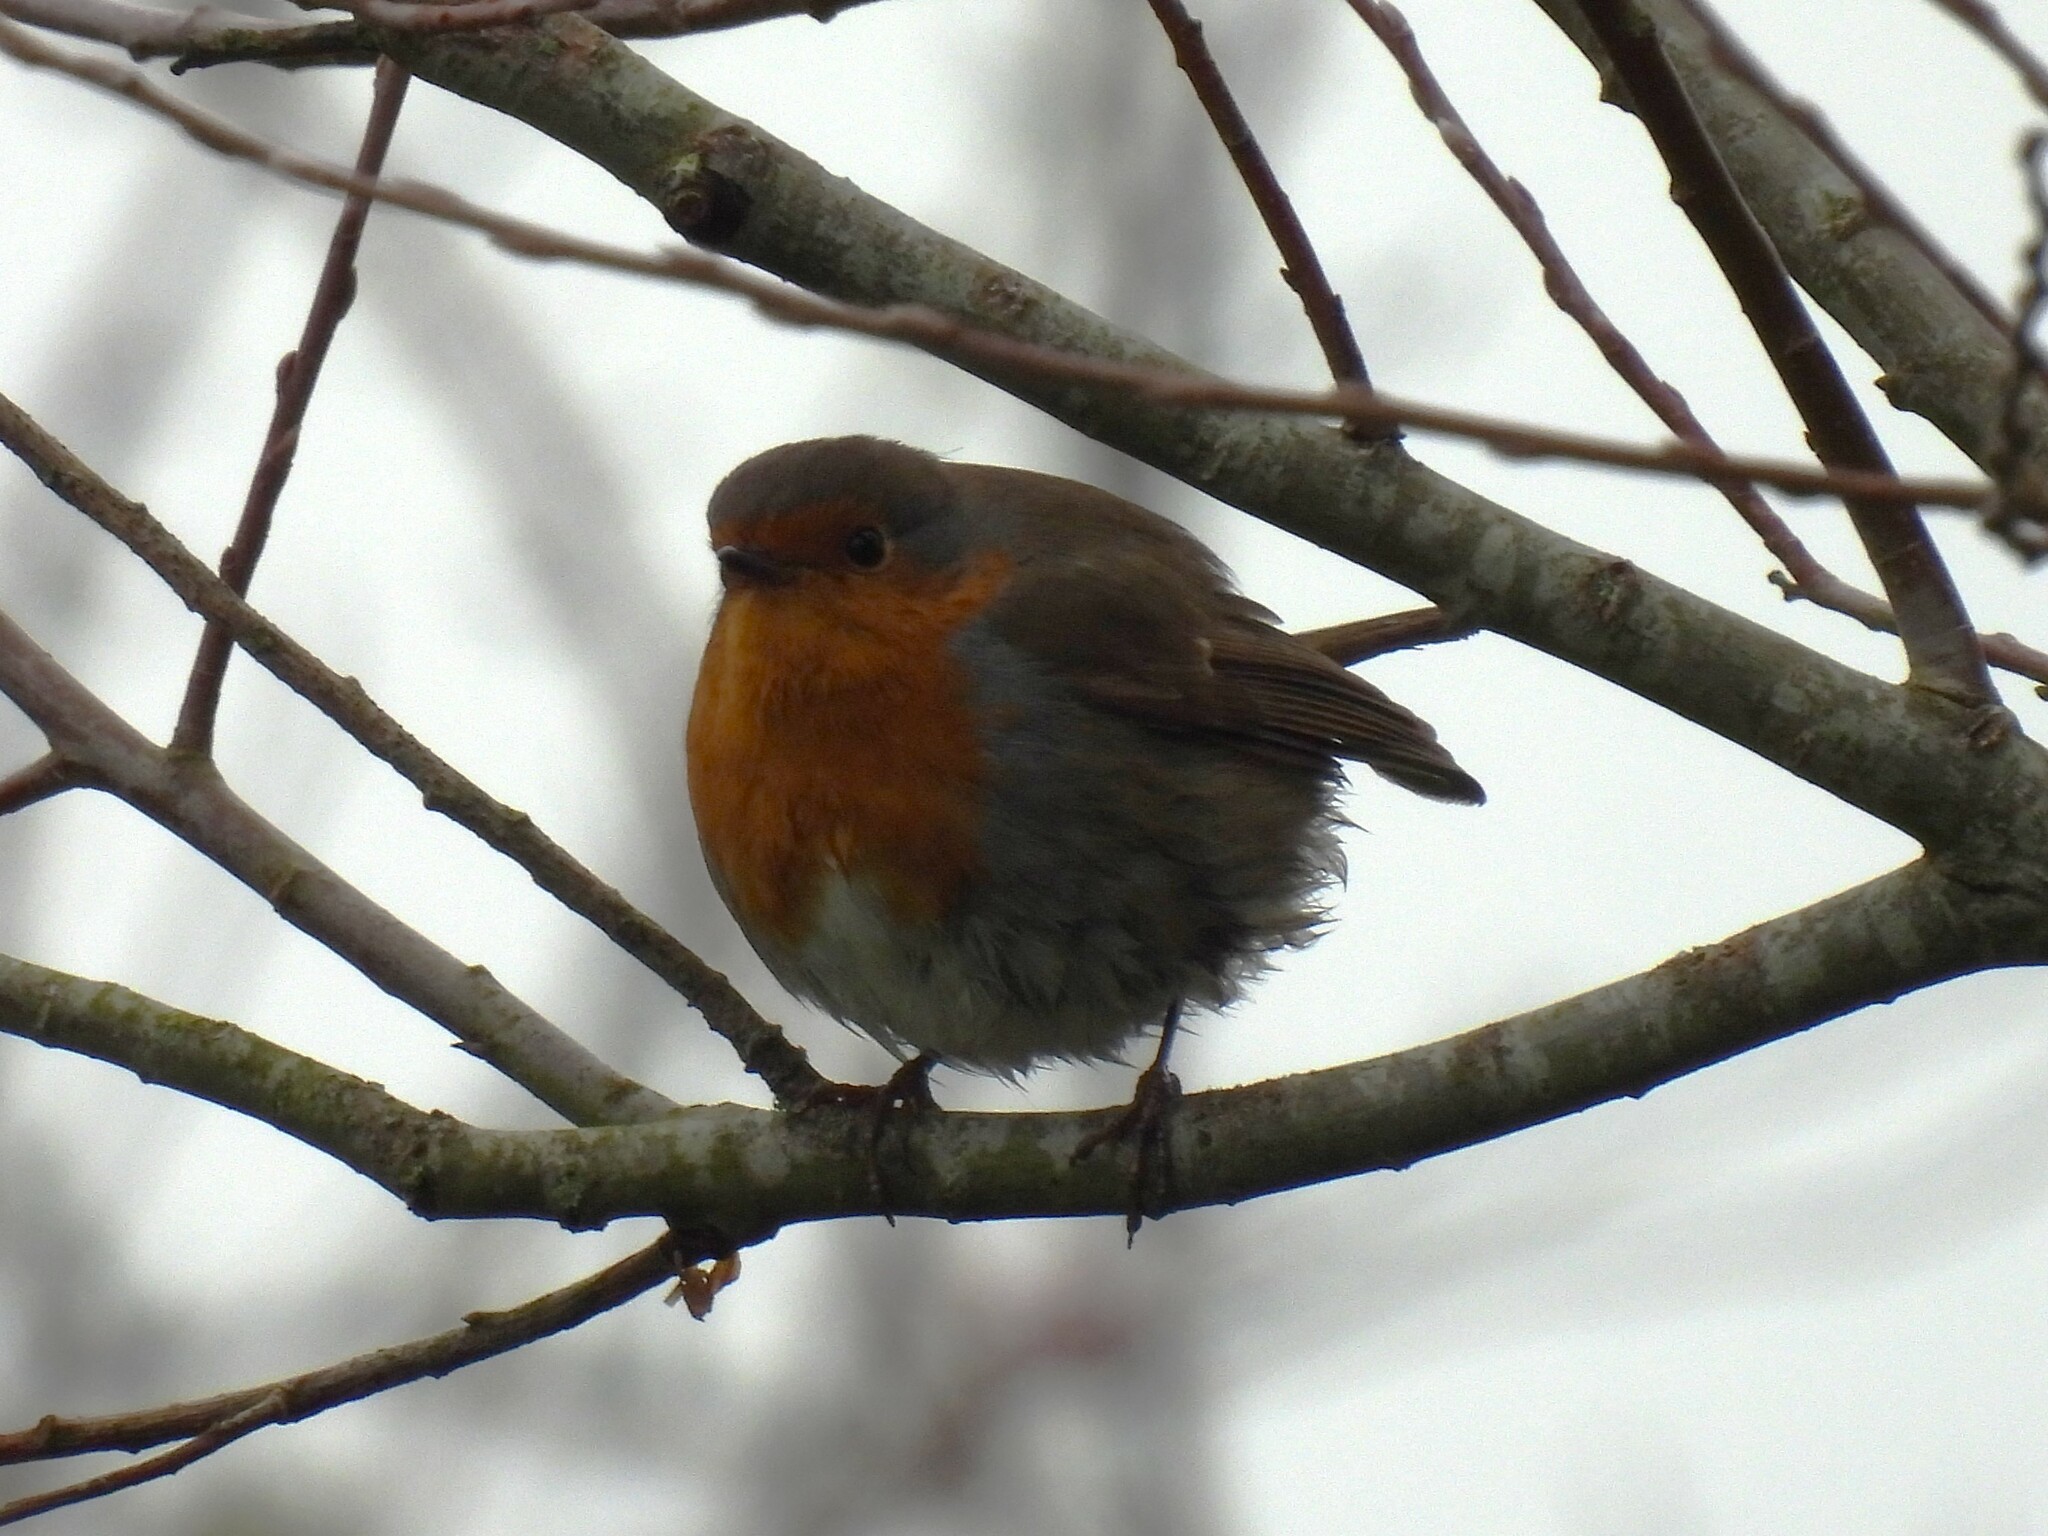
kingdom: Animalia
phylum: Chordata
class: Aves
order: Passeriformes
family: Muscicapidae
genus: Erithacus
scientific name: Erithacus rubecula
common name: European robin
